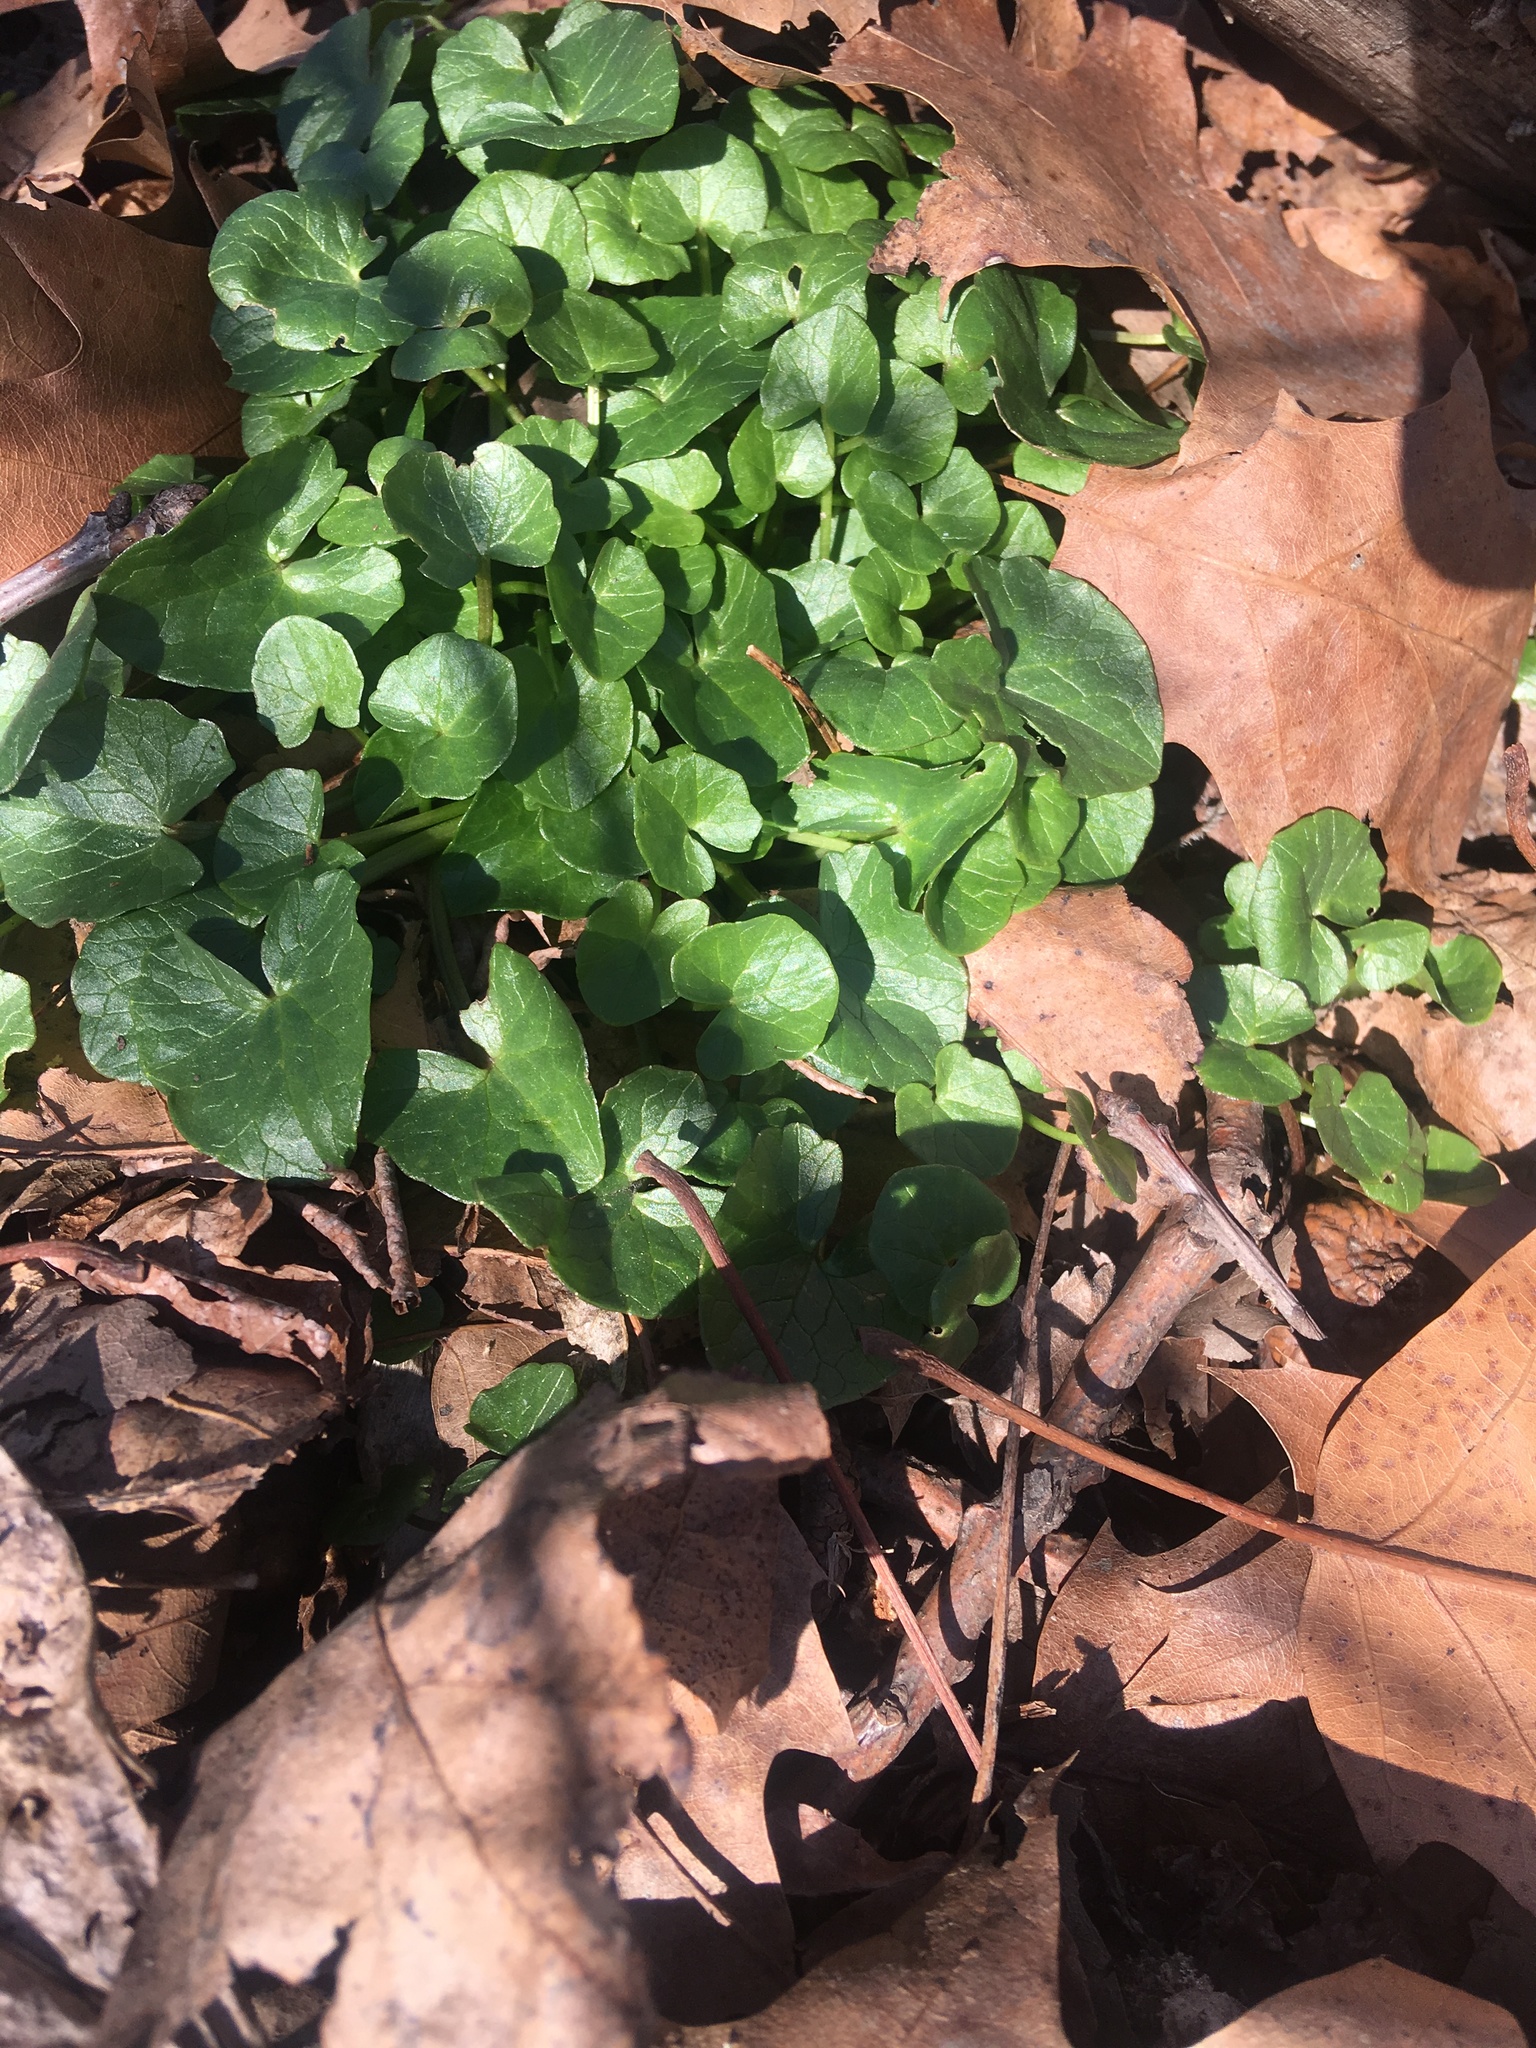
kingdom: Plantae
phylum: Tracheophyta
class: Magnoliopsida
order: Ranunculales
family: Ranunculaceae
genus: Ficaria
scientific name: Ficaria verna
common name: Lesser celandine
